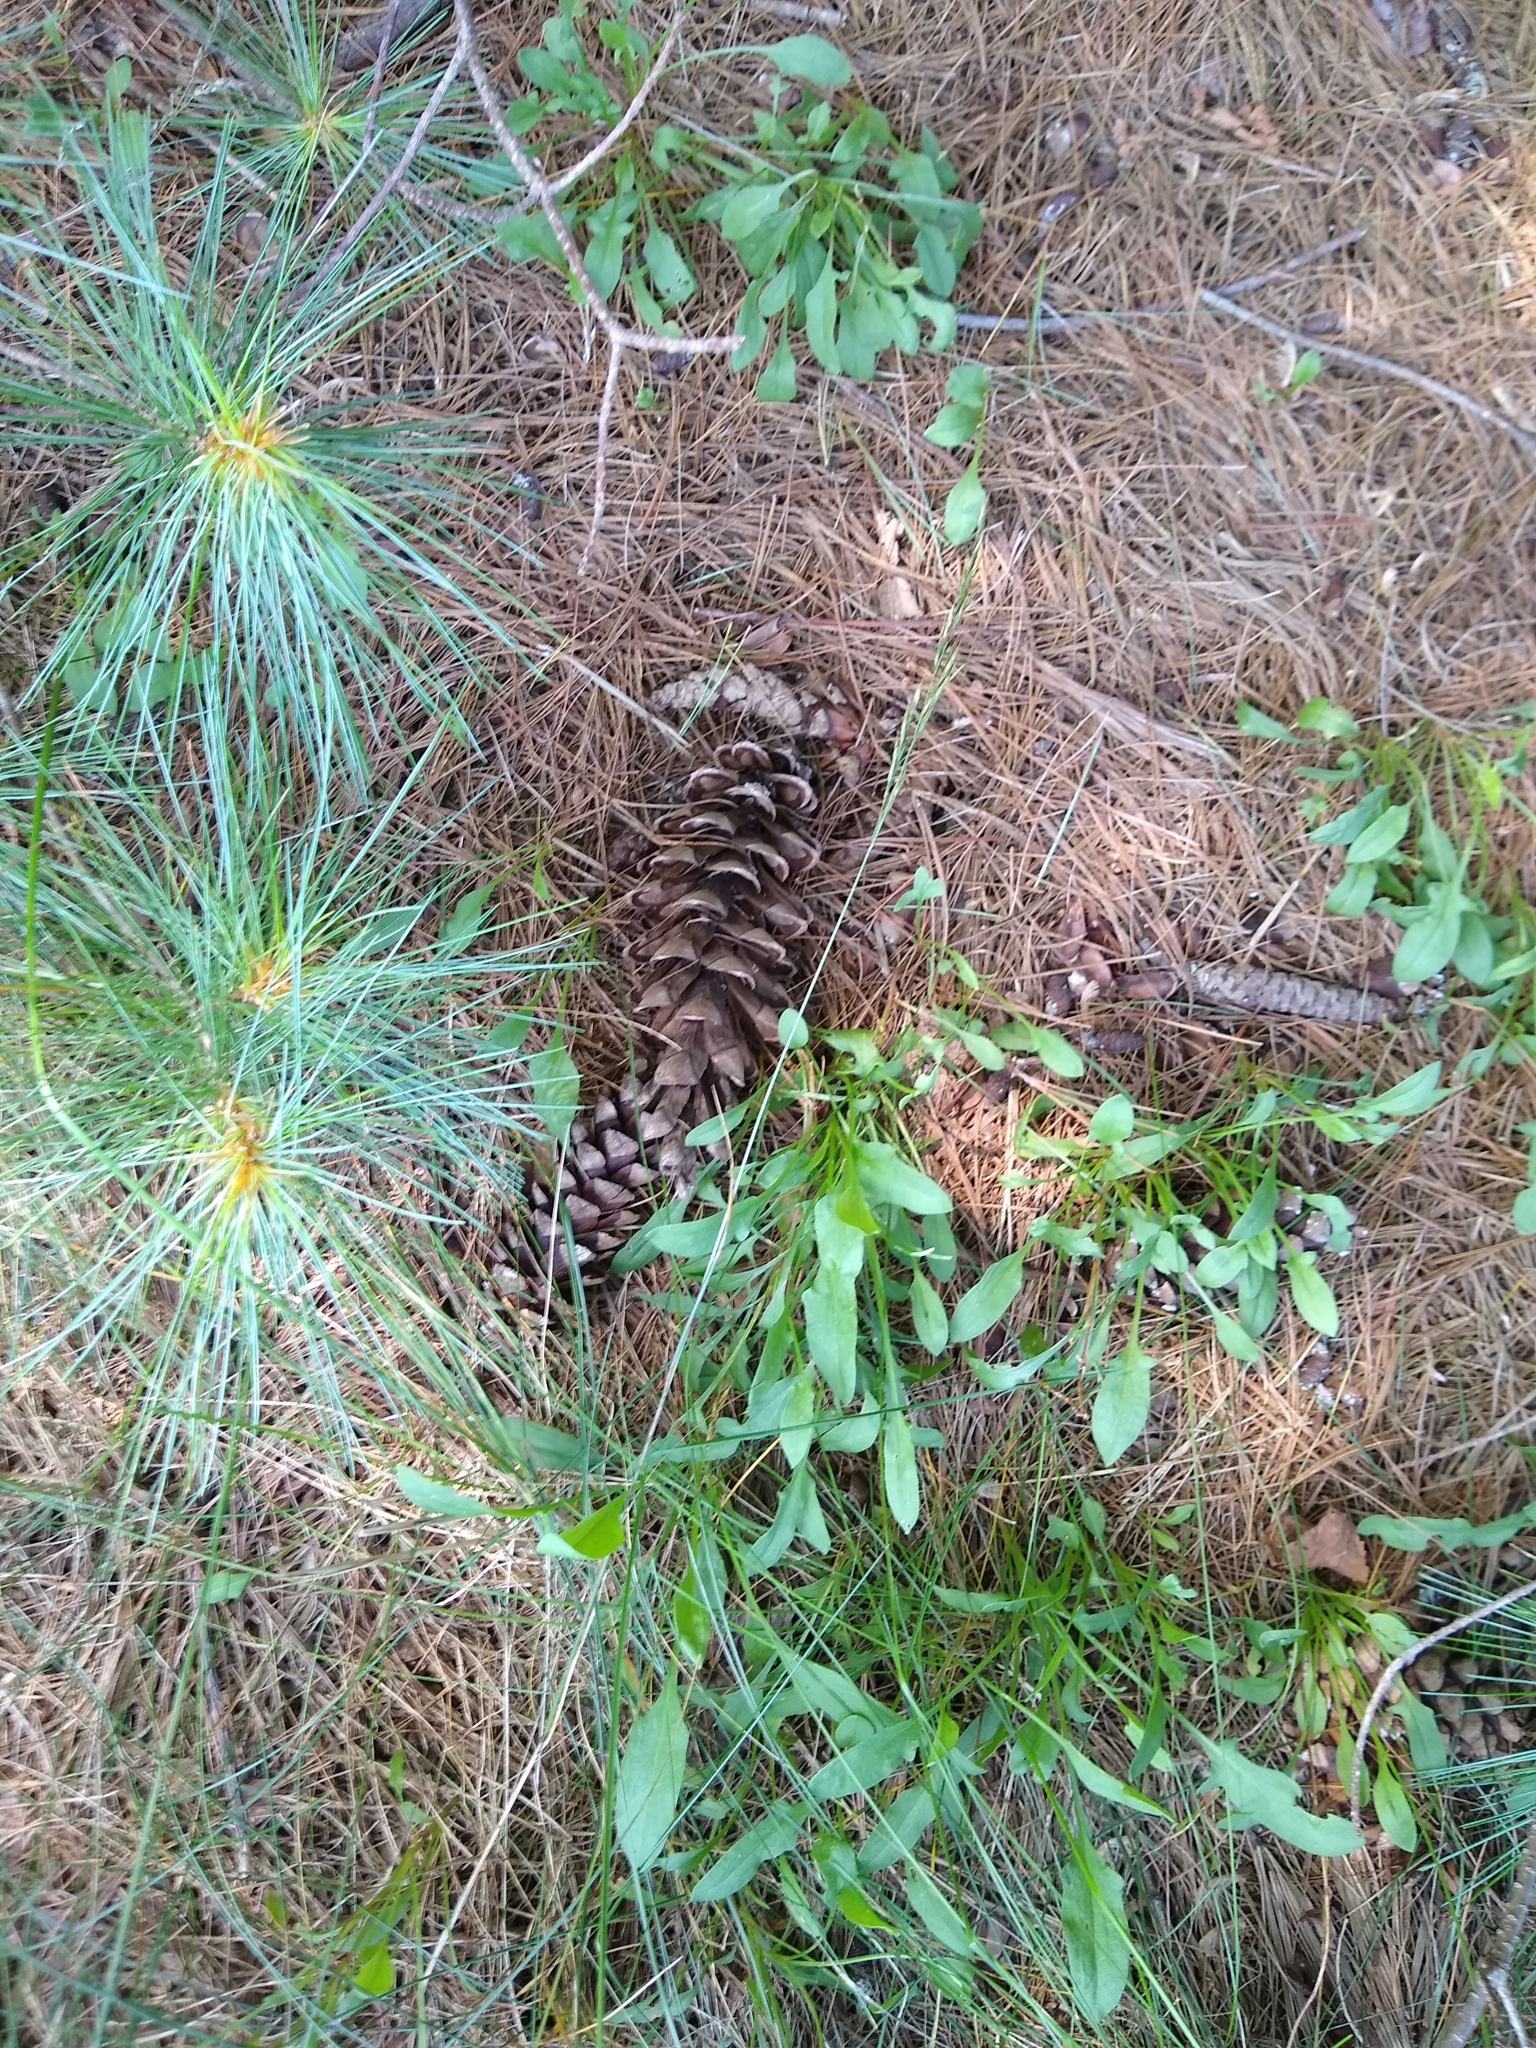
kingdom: Plantae
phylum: Tracheophyta
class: Pinopsida
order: Pinales
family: Pinaceae
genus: Pinus
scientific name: Pinus strobus
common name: Weymouth pine
